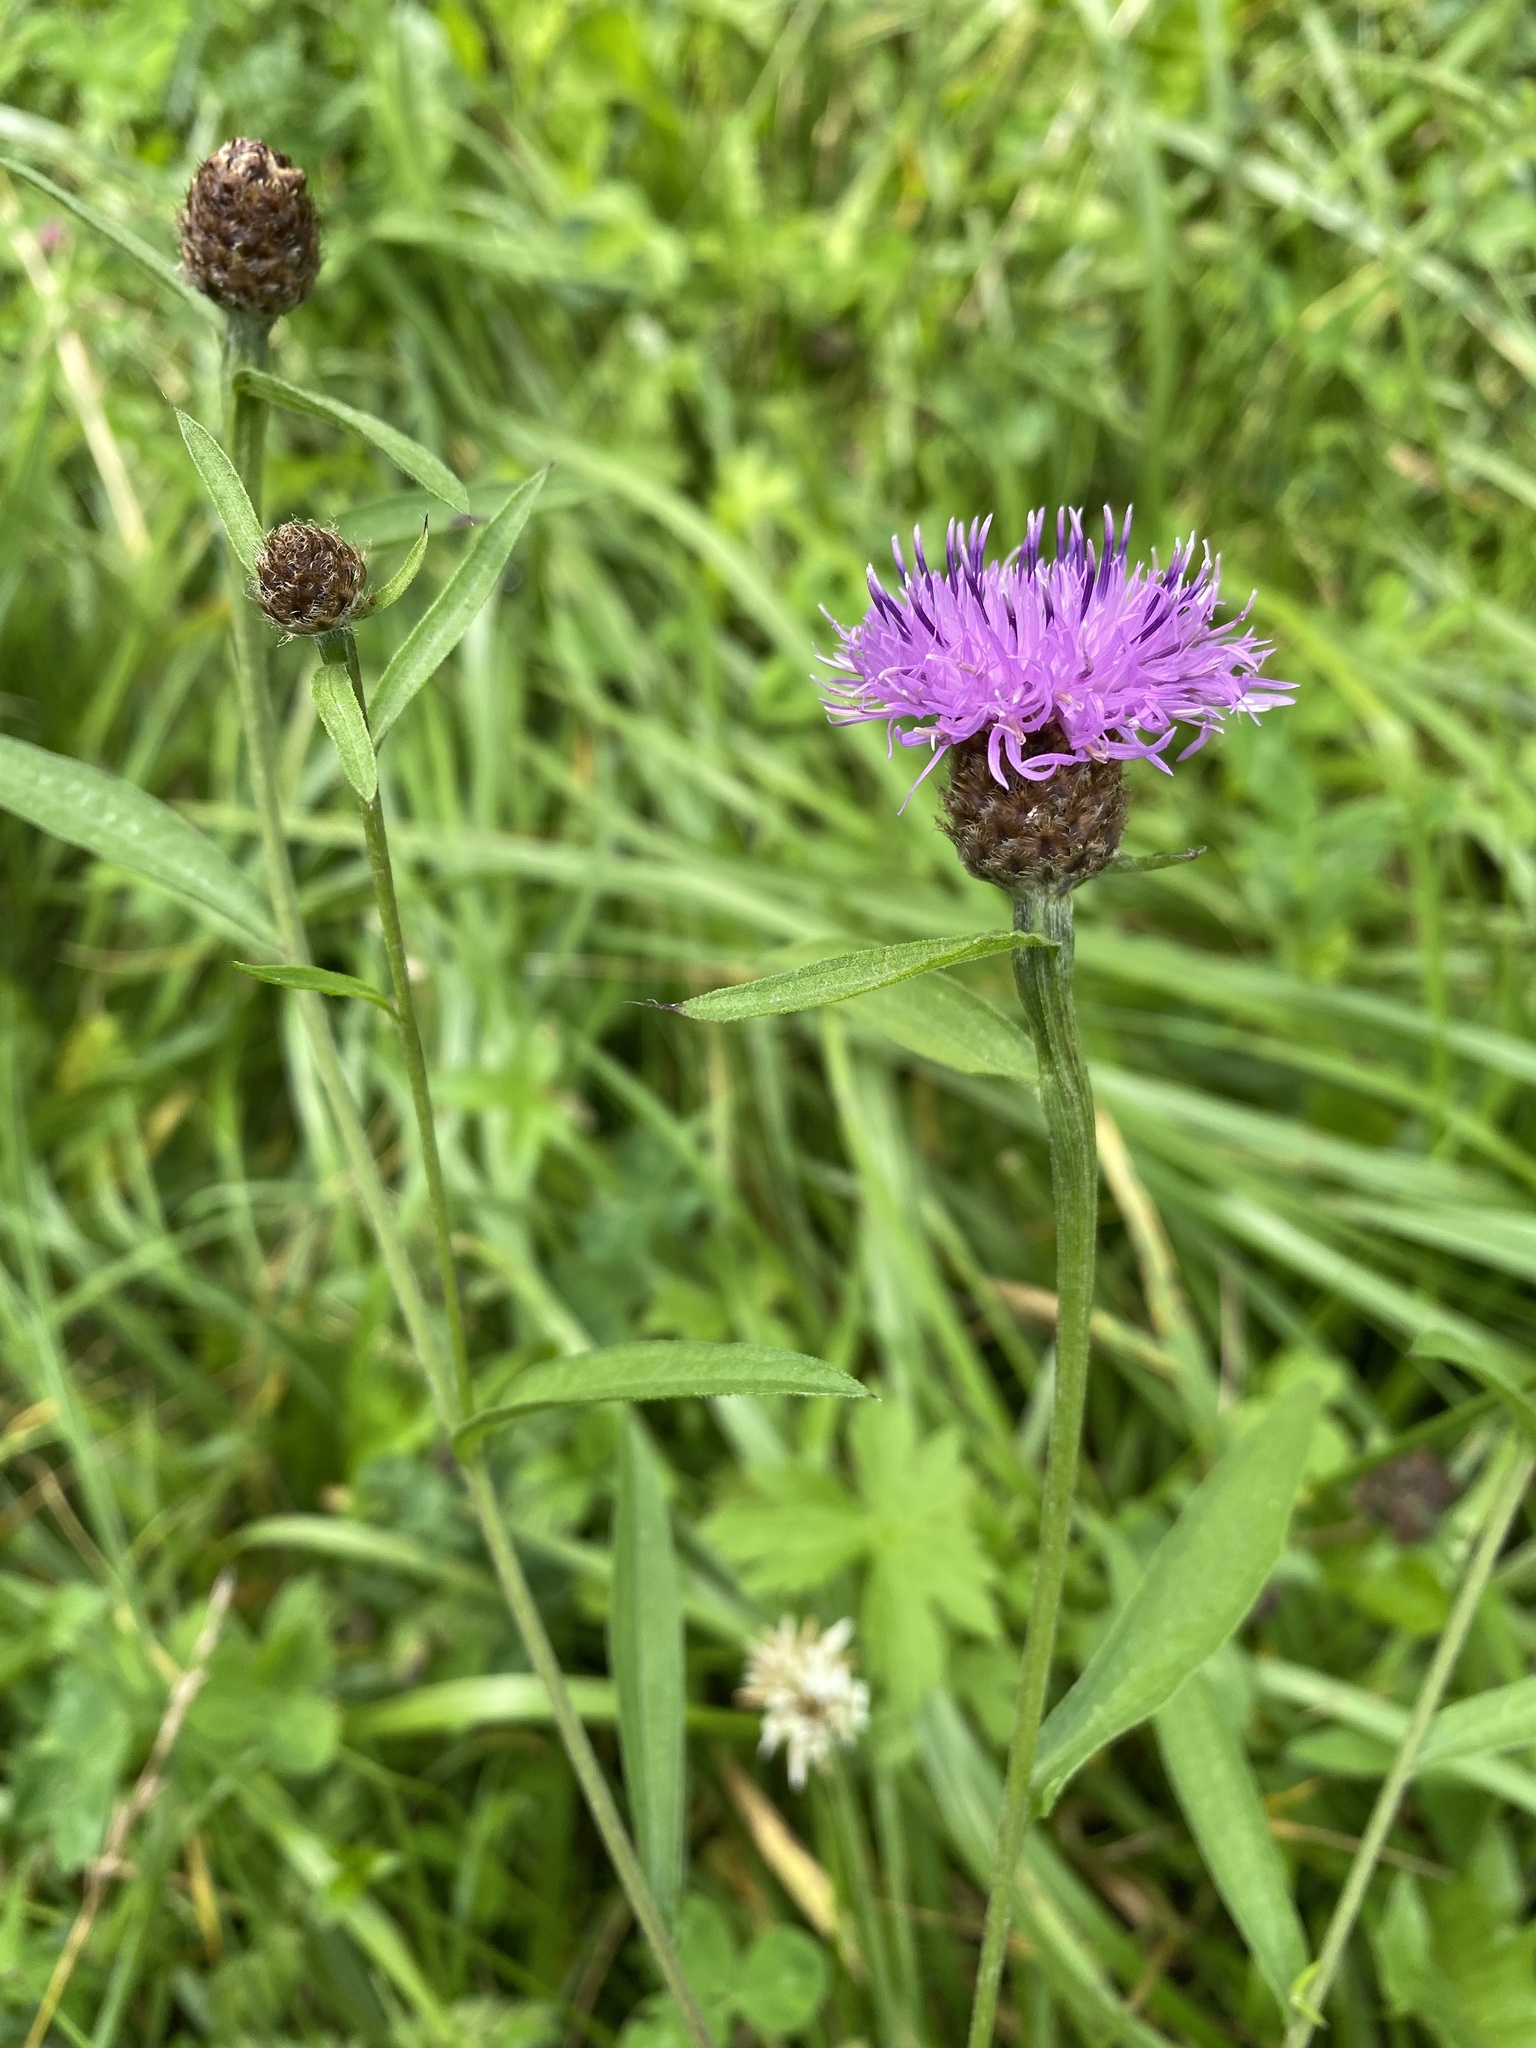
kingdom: Plantae
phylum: Tracheophyta
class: Magnoliopsida
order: Asterales
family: Asteraceae
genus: Centaurea
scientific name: Centaurea jacea
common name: Brown knapweed
